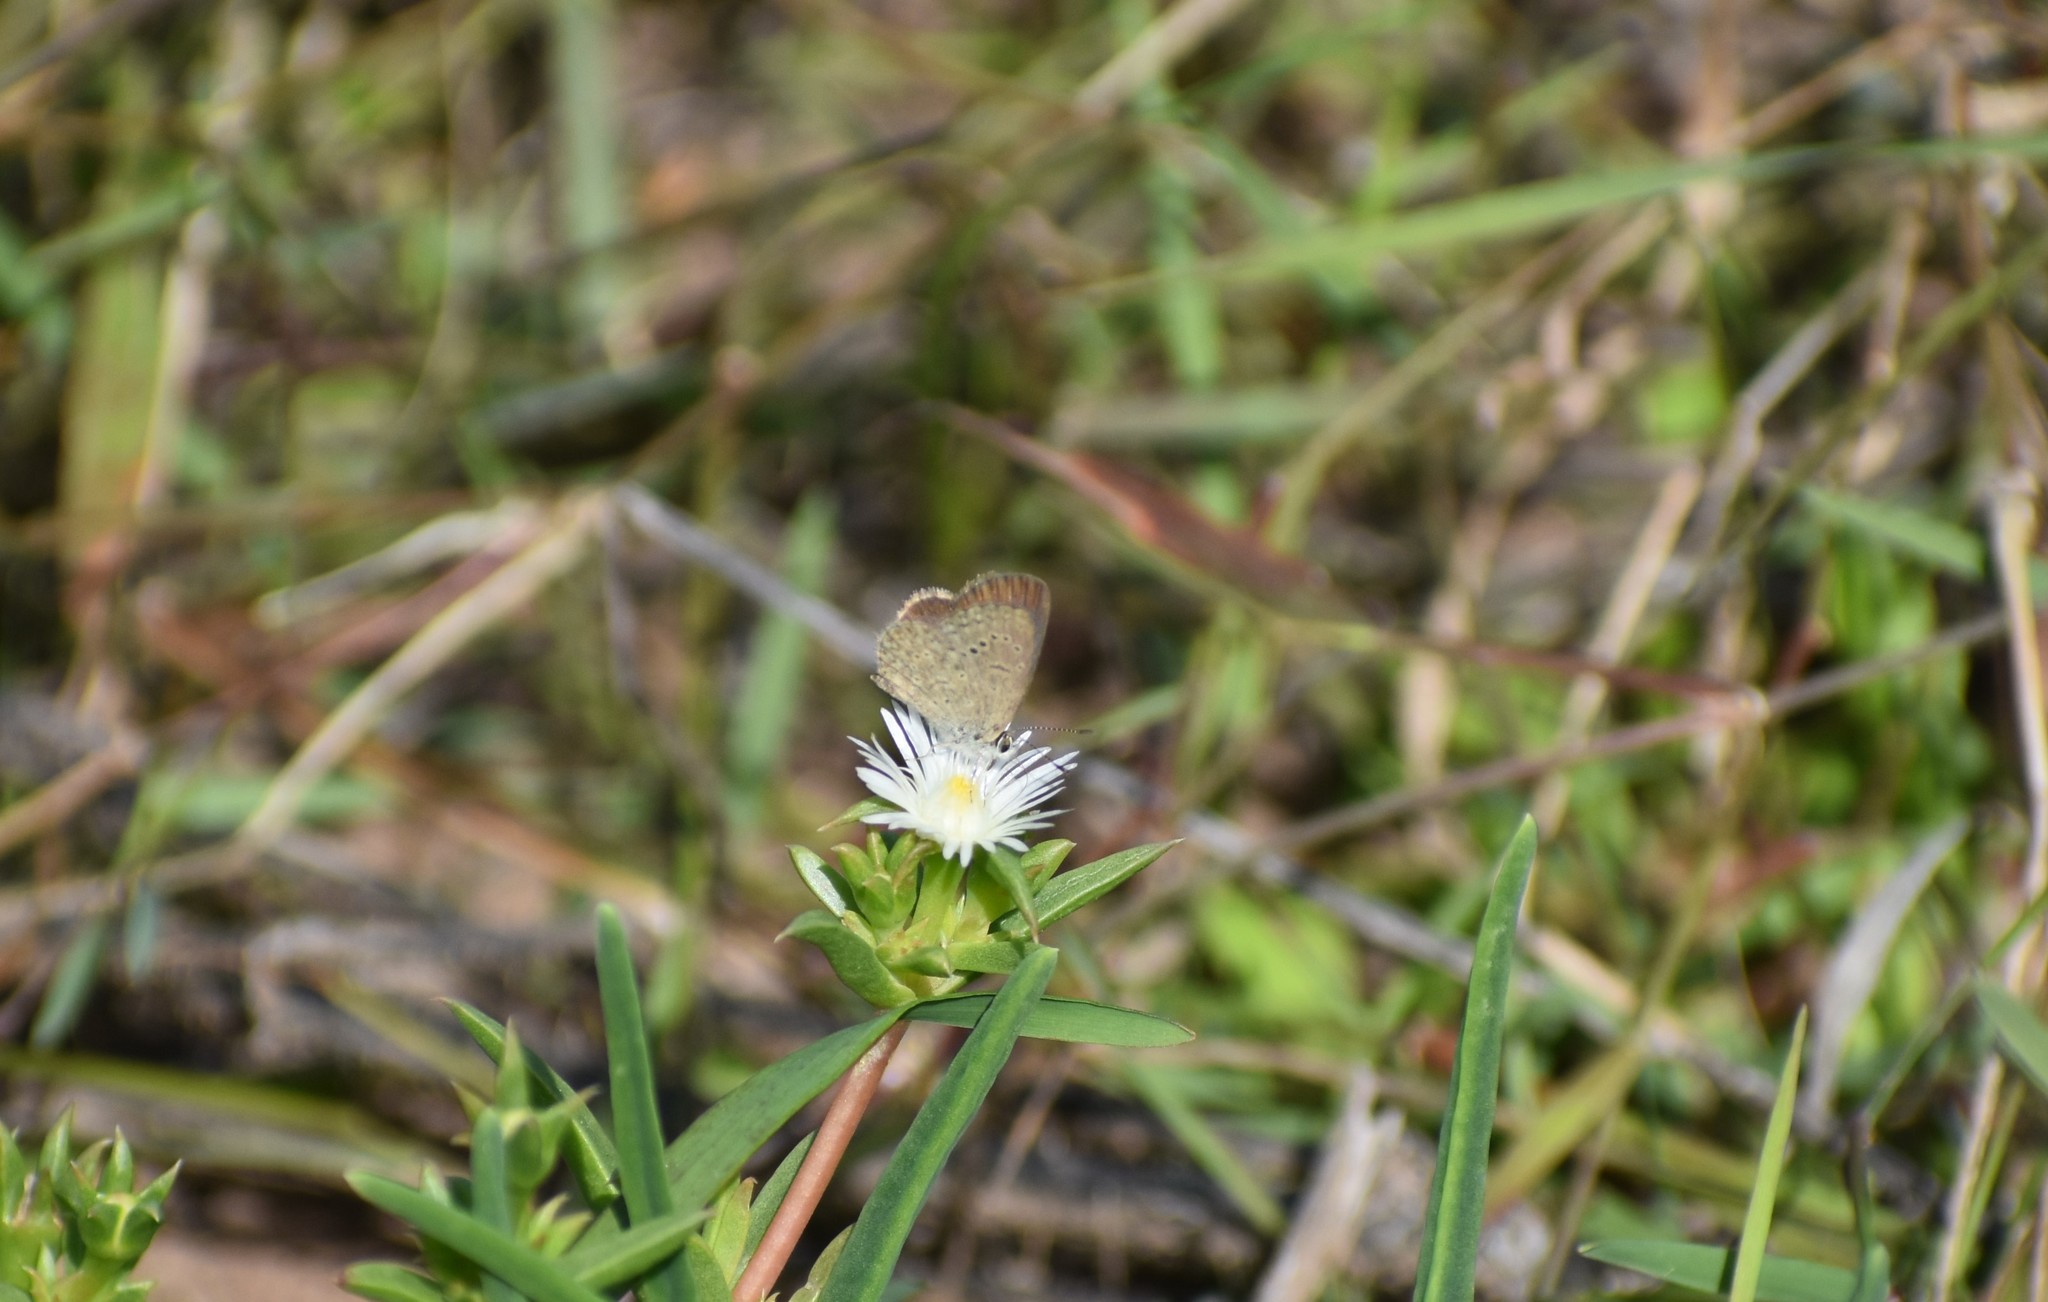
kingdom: Animalia
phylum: Arthropoda
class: Insecta
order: Lepidoptera
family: Lycaenidae
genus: Zizeeria
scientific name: Zizeeria knysna
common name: African grass blue
